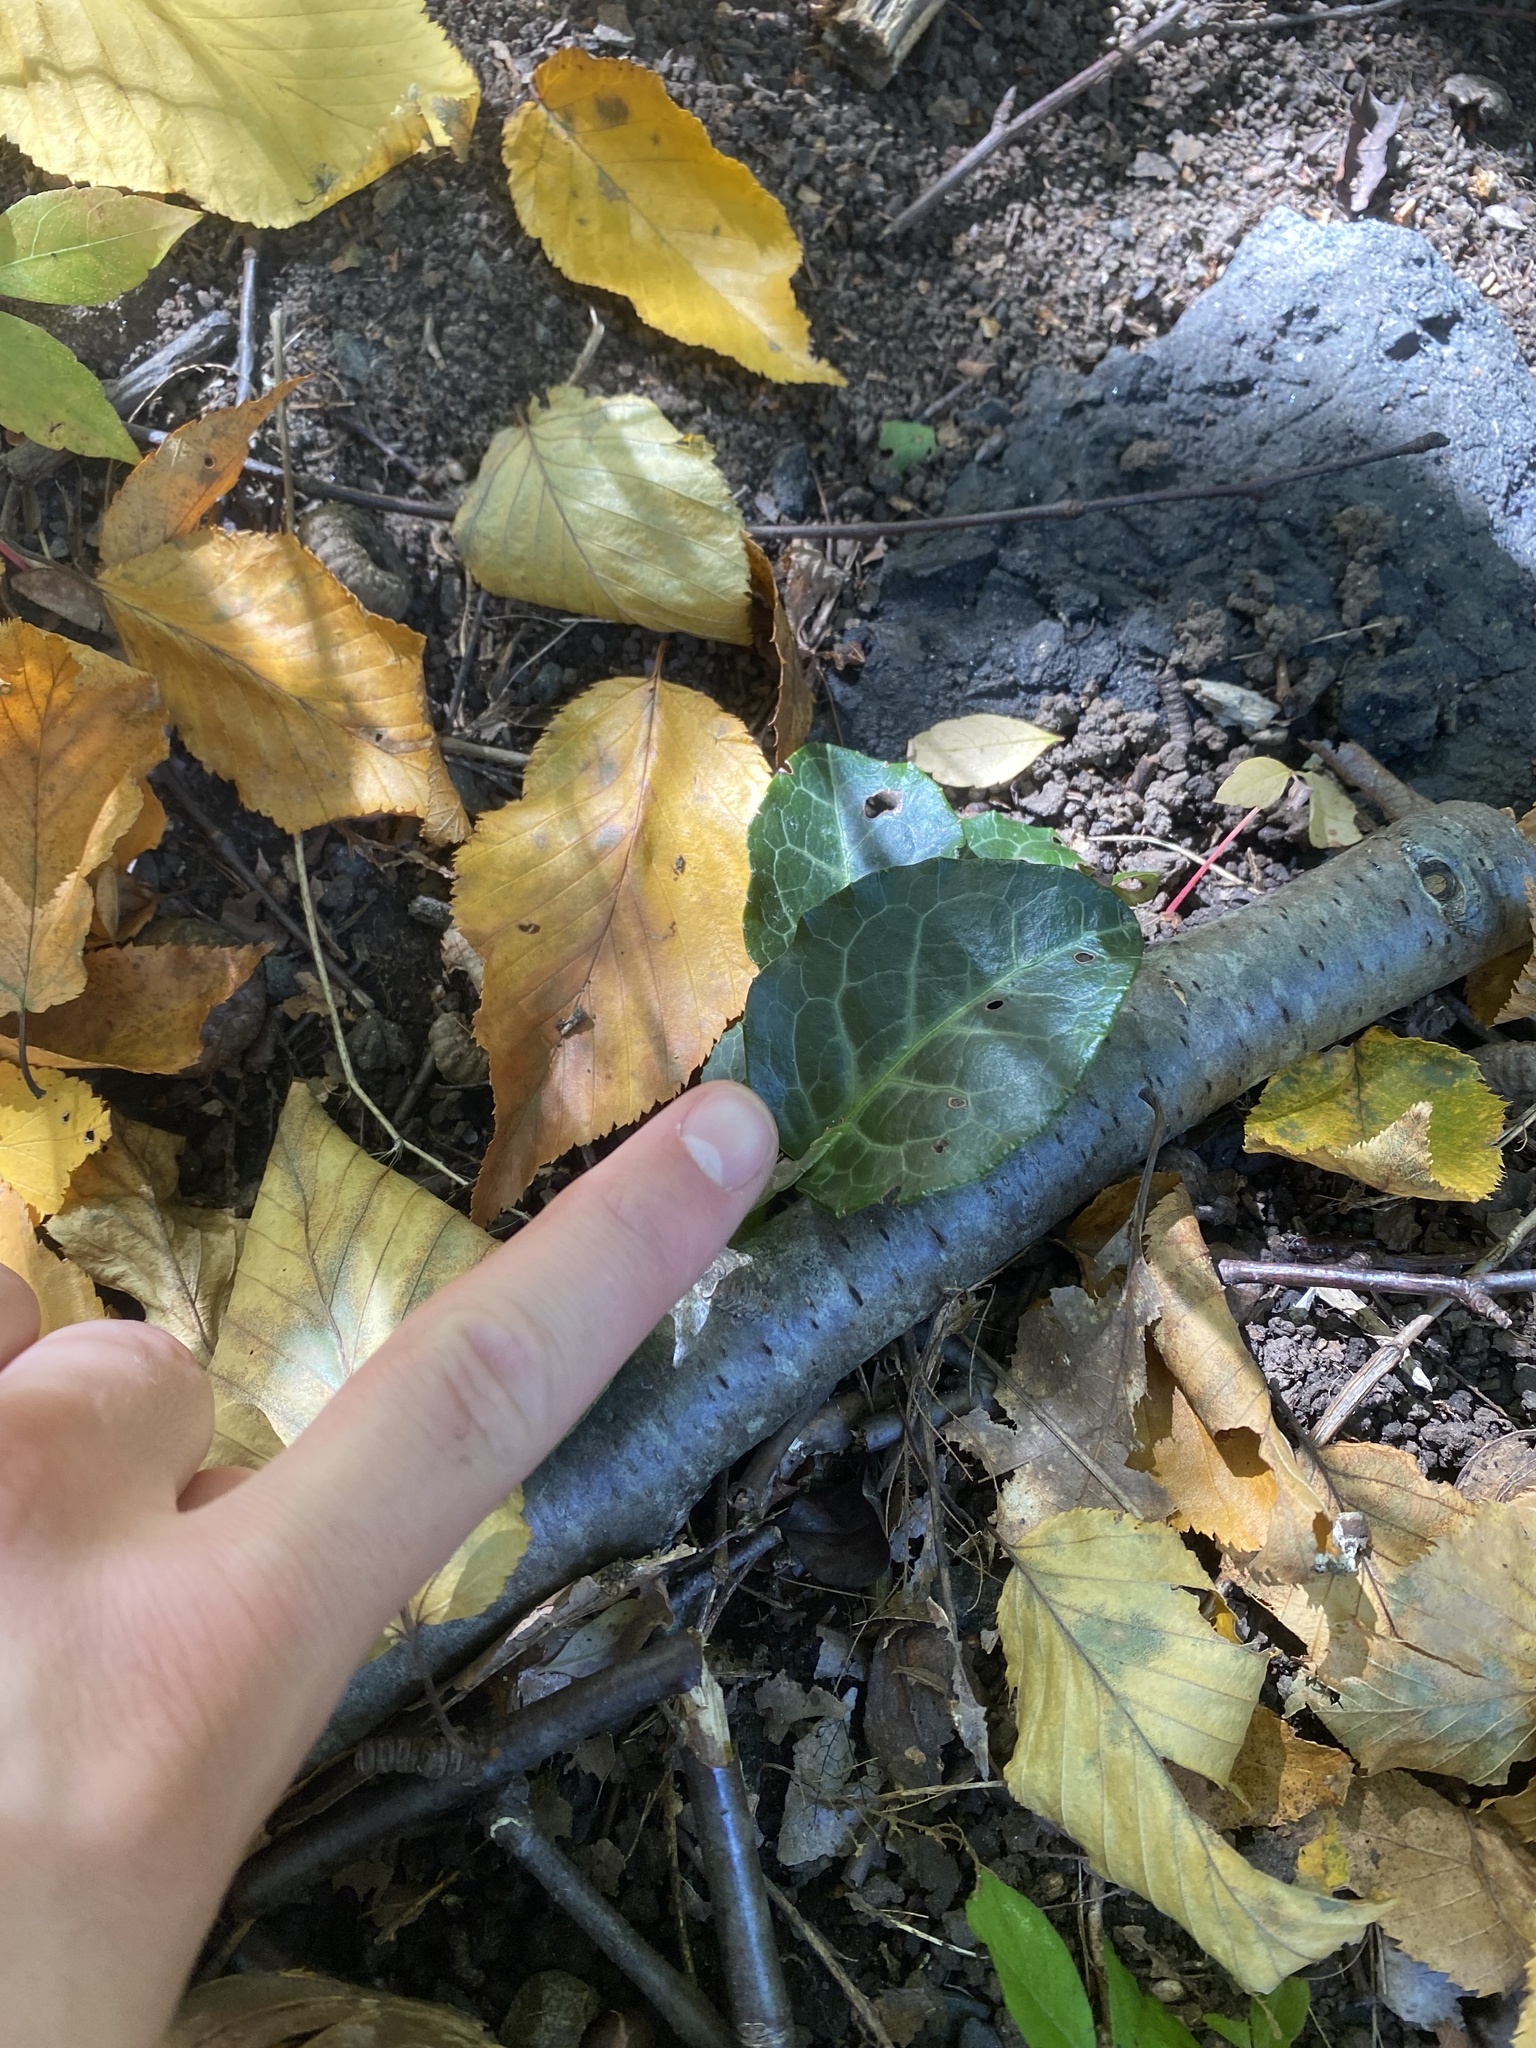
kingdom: Plantae
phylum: Tracheophyta
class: Magnoliopsida
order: Ericales
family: Ericaceae
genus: Pyrola
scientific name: Pyrola americana
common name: American wintergreen
